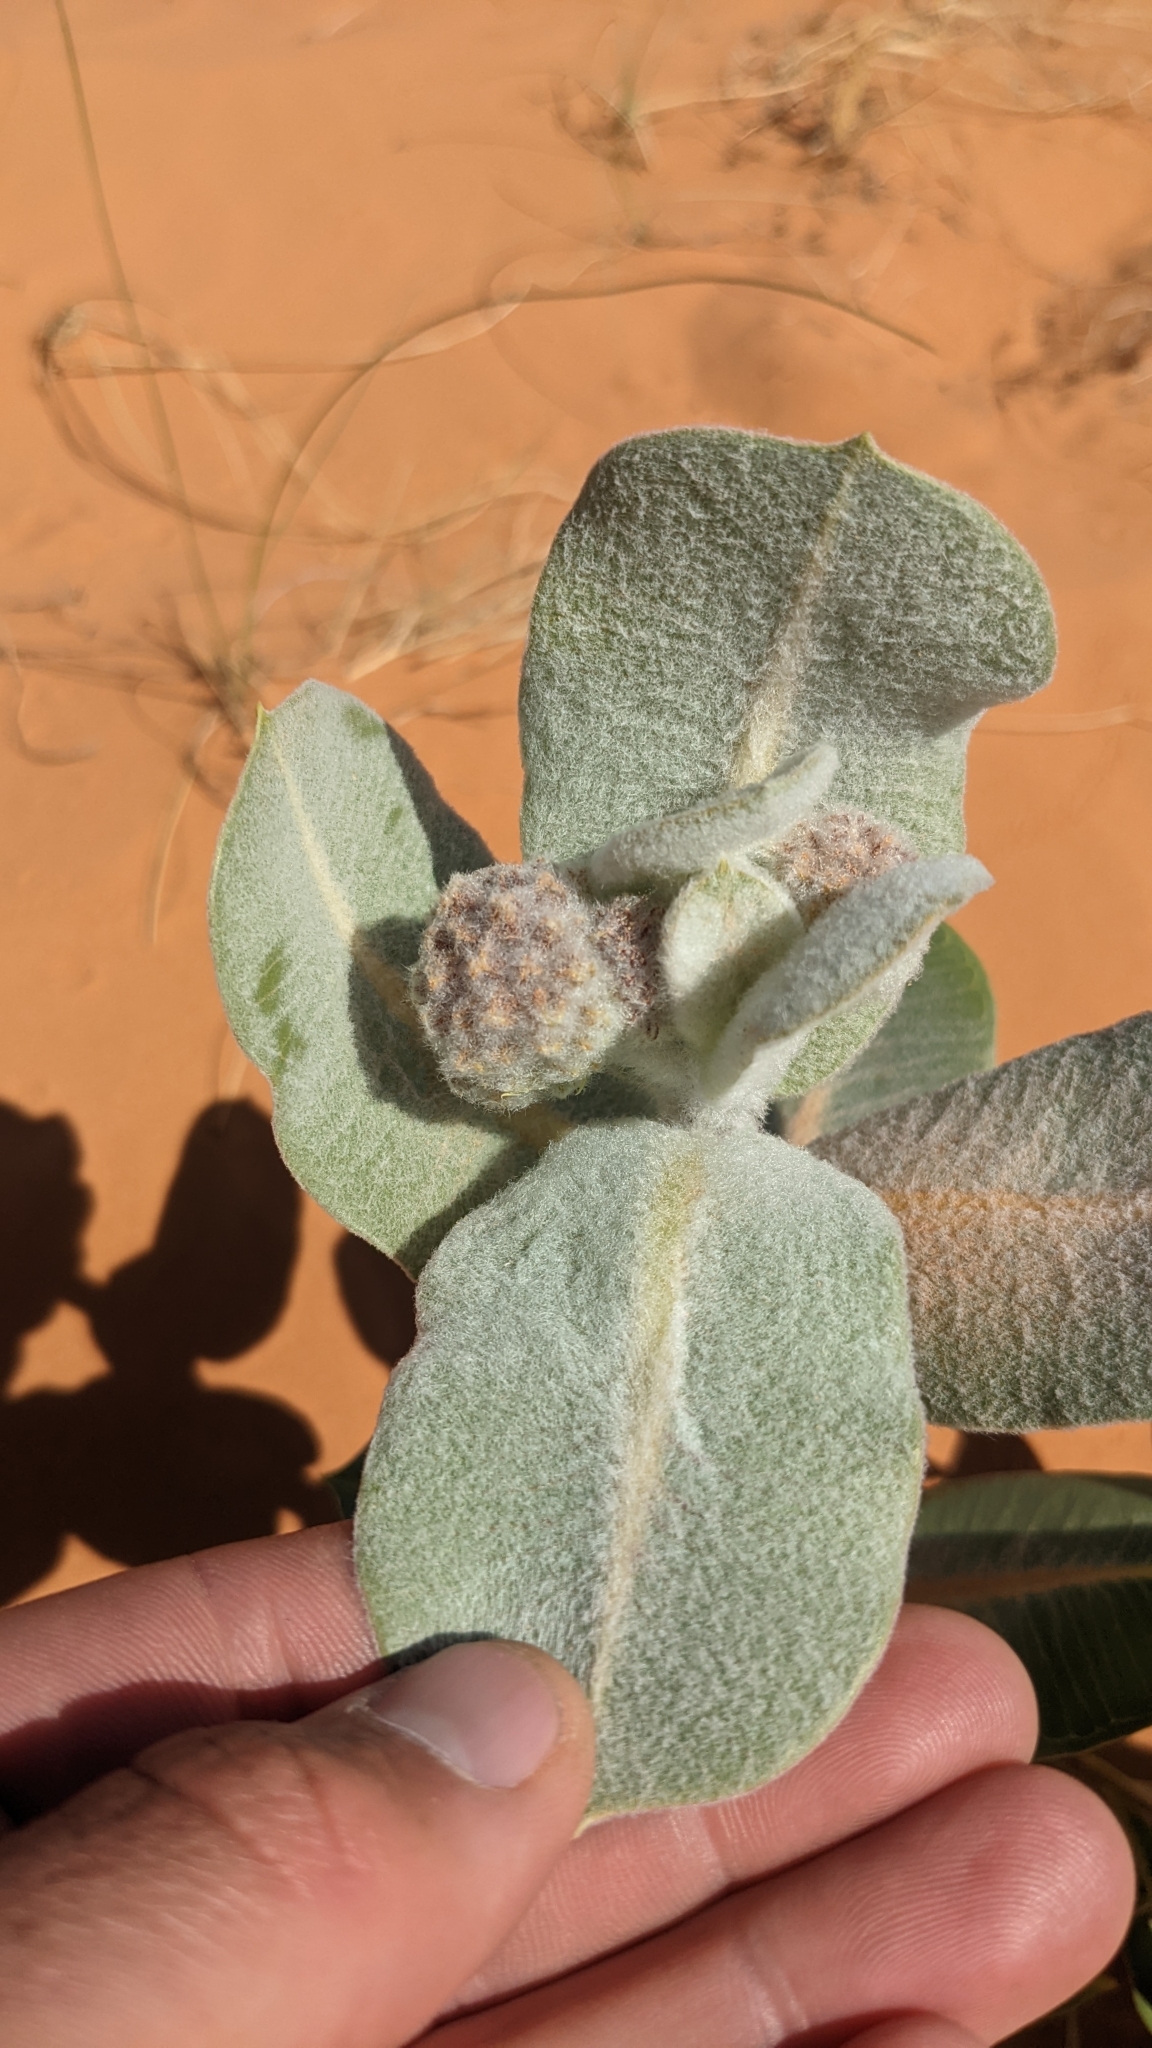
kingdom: Plantae
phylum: Tracheophyta
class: Magnoliopsida
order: Gentianales
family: Apocynaceae
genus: Asclepias
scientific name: Asclepias welshii
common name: Welsch's milkweed
